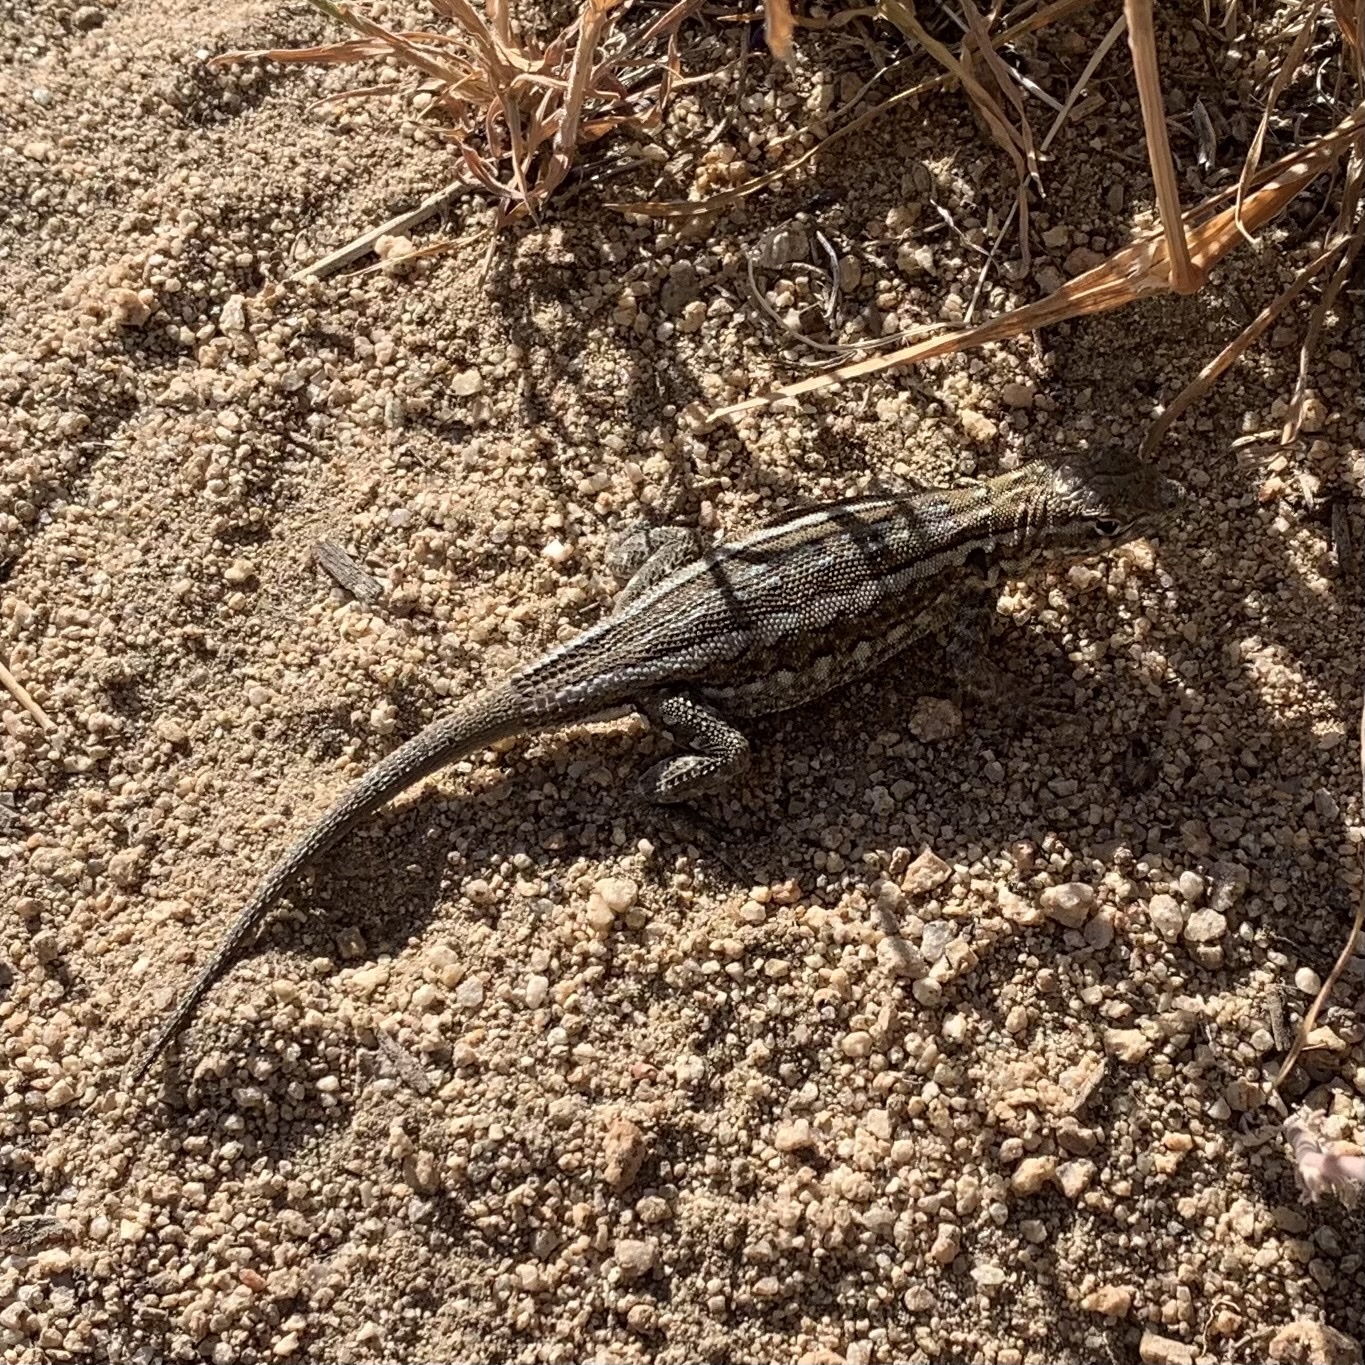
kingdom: Animalia
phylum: Chordata
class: Squamata
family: Phrynosomatidae
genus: Uta
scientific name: Uta stansburiana
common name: Side-blotched lizard
